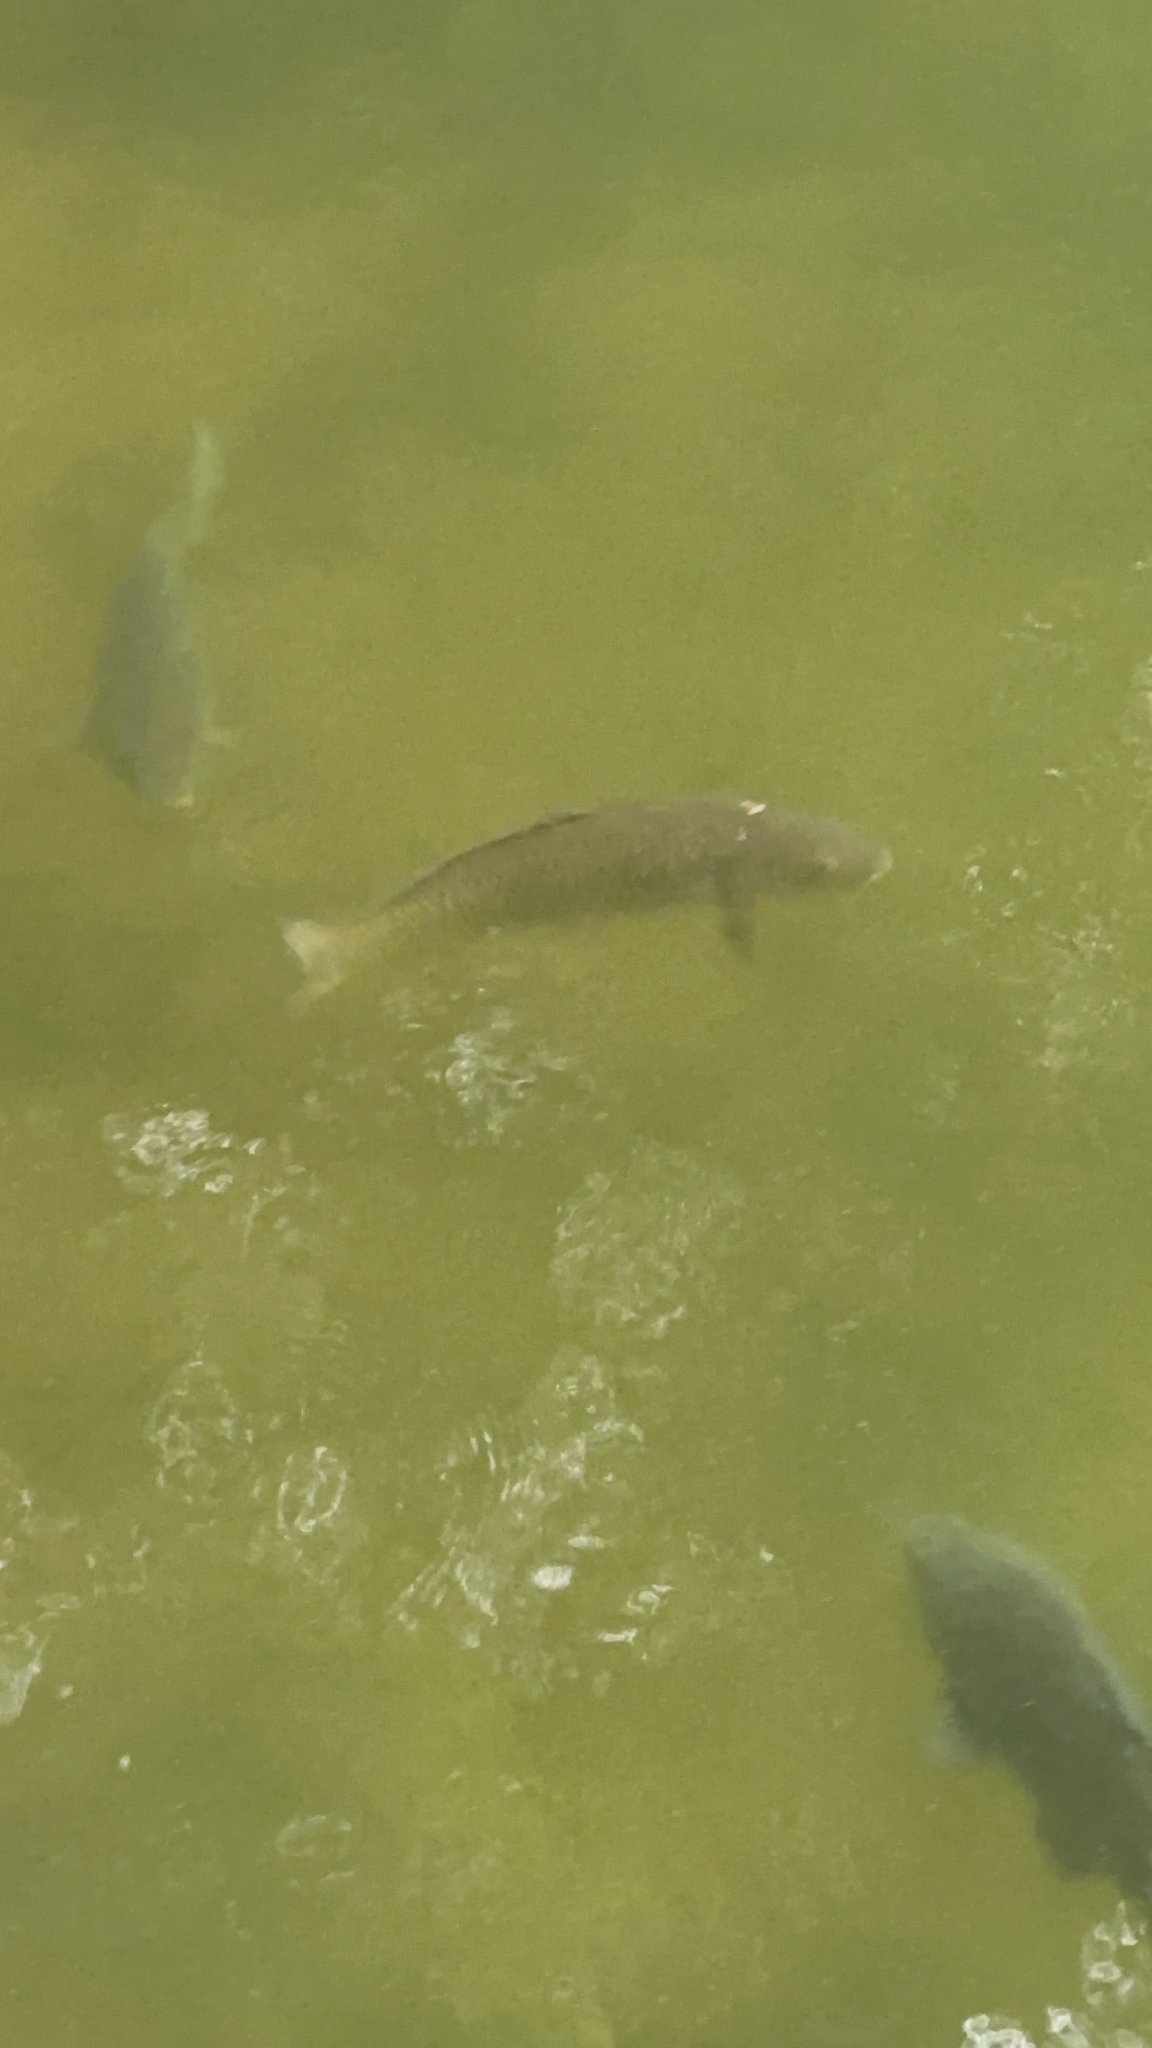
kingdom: Animalia
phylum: Chordata
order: Cypriniformes
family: Cyprinidae
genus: Cyprinus
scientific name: Cyprinus carpio
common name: Common carp
